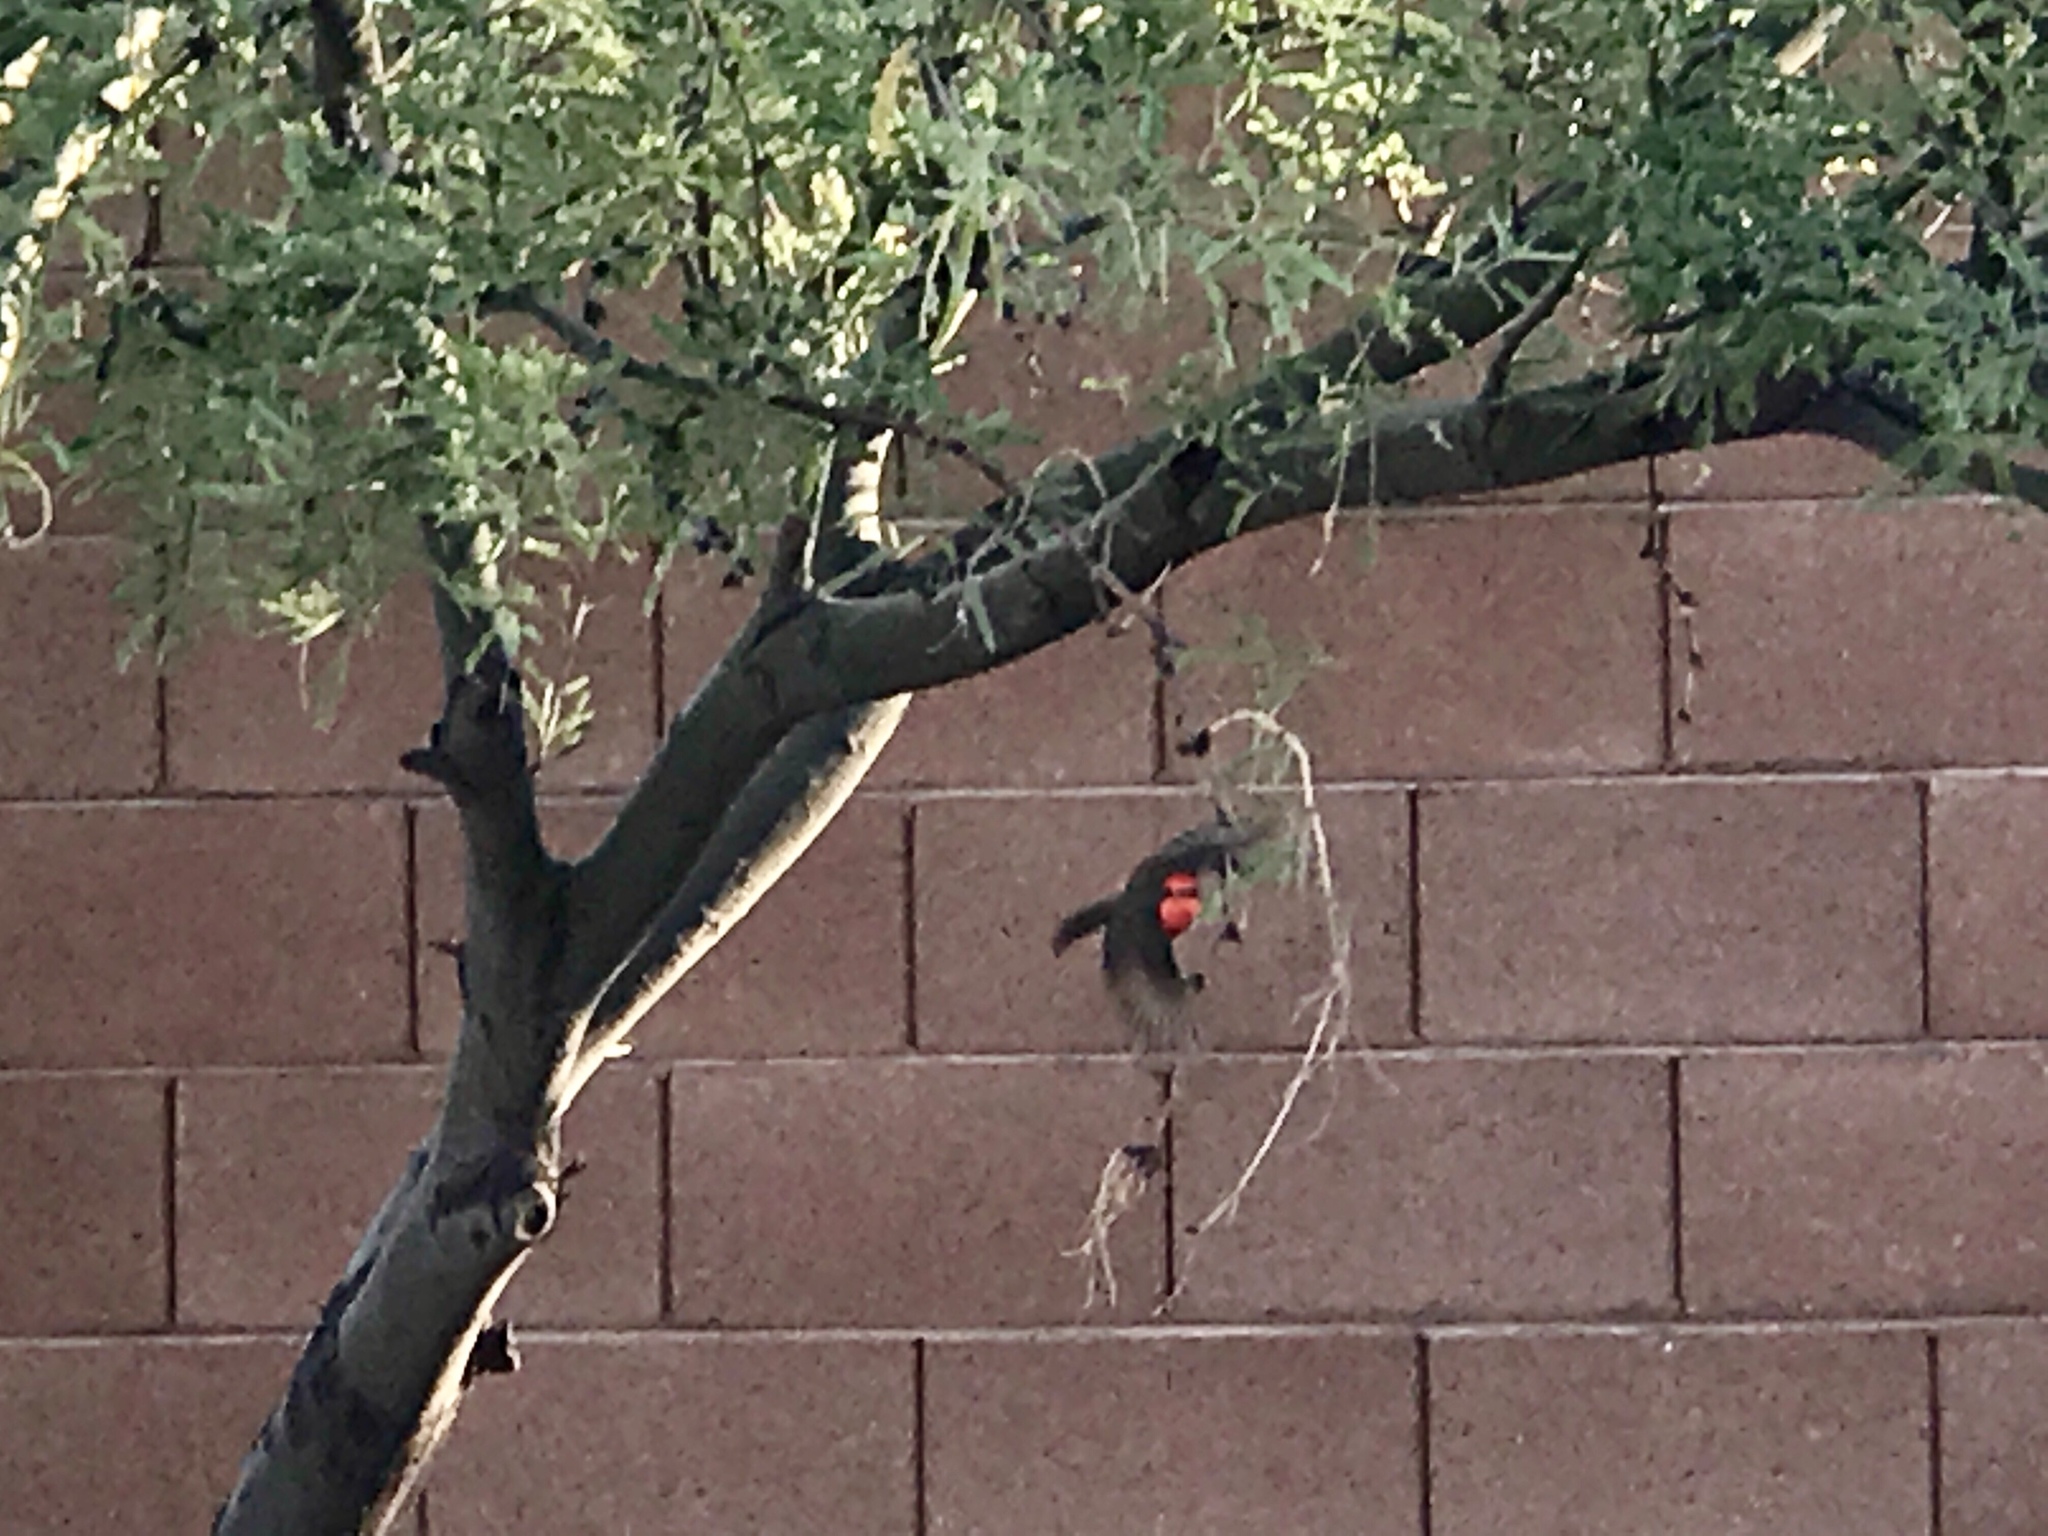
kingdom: Animalia
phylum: Chordata
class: Aves
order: Passeriformes
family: Tyrannidae
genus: Pyrocephalus
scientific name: Pyrocephalus rubinus
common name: Vermilion flycatcher
